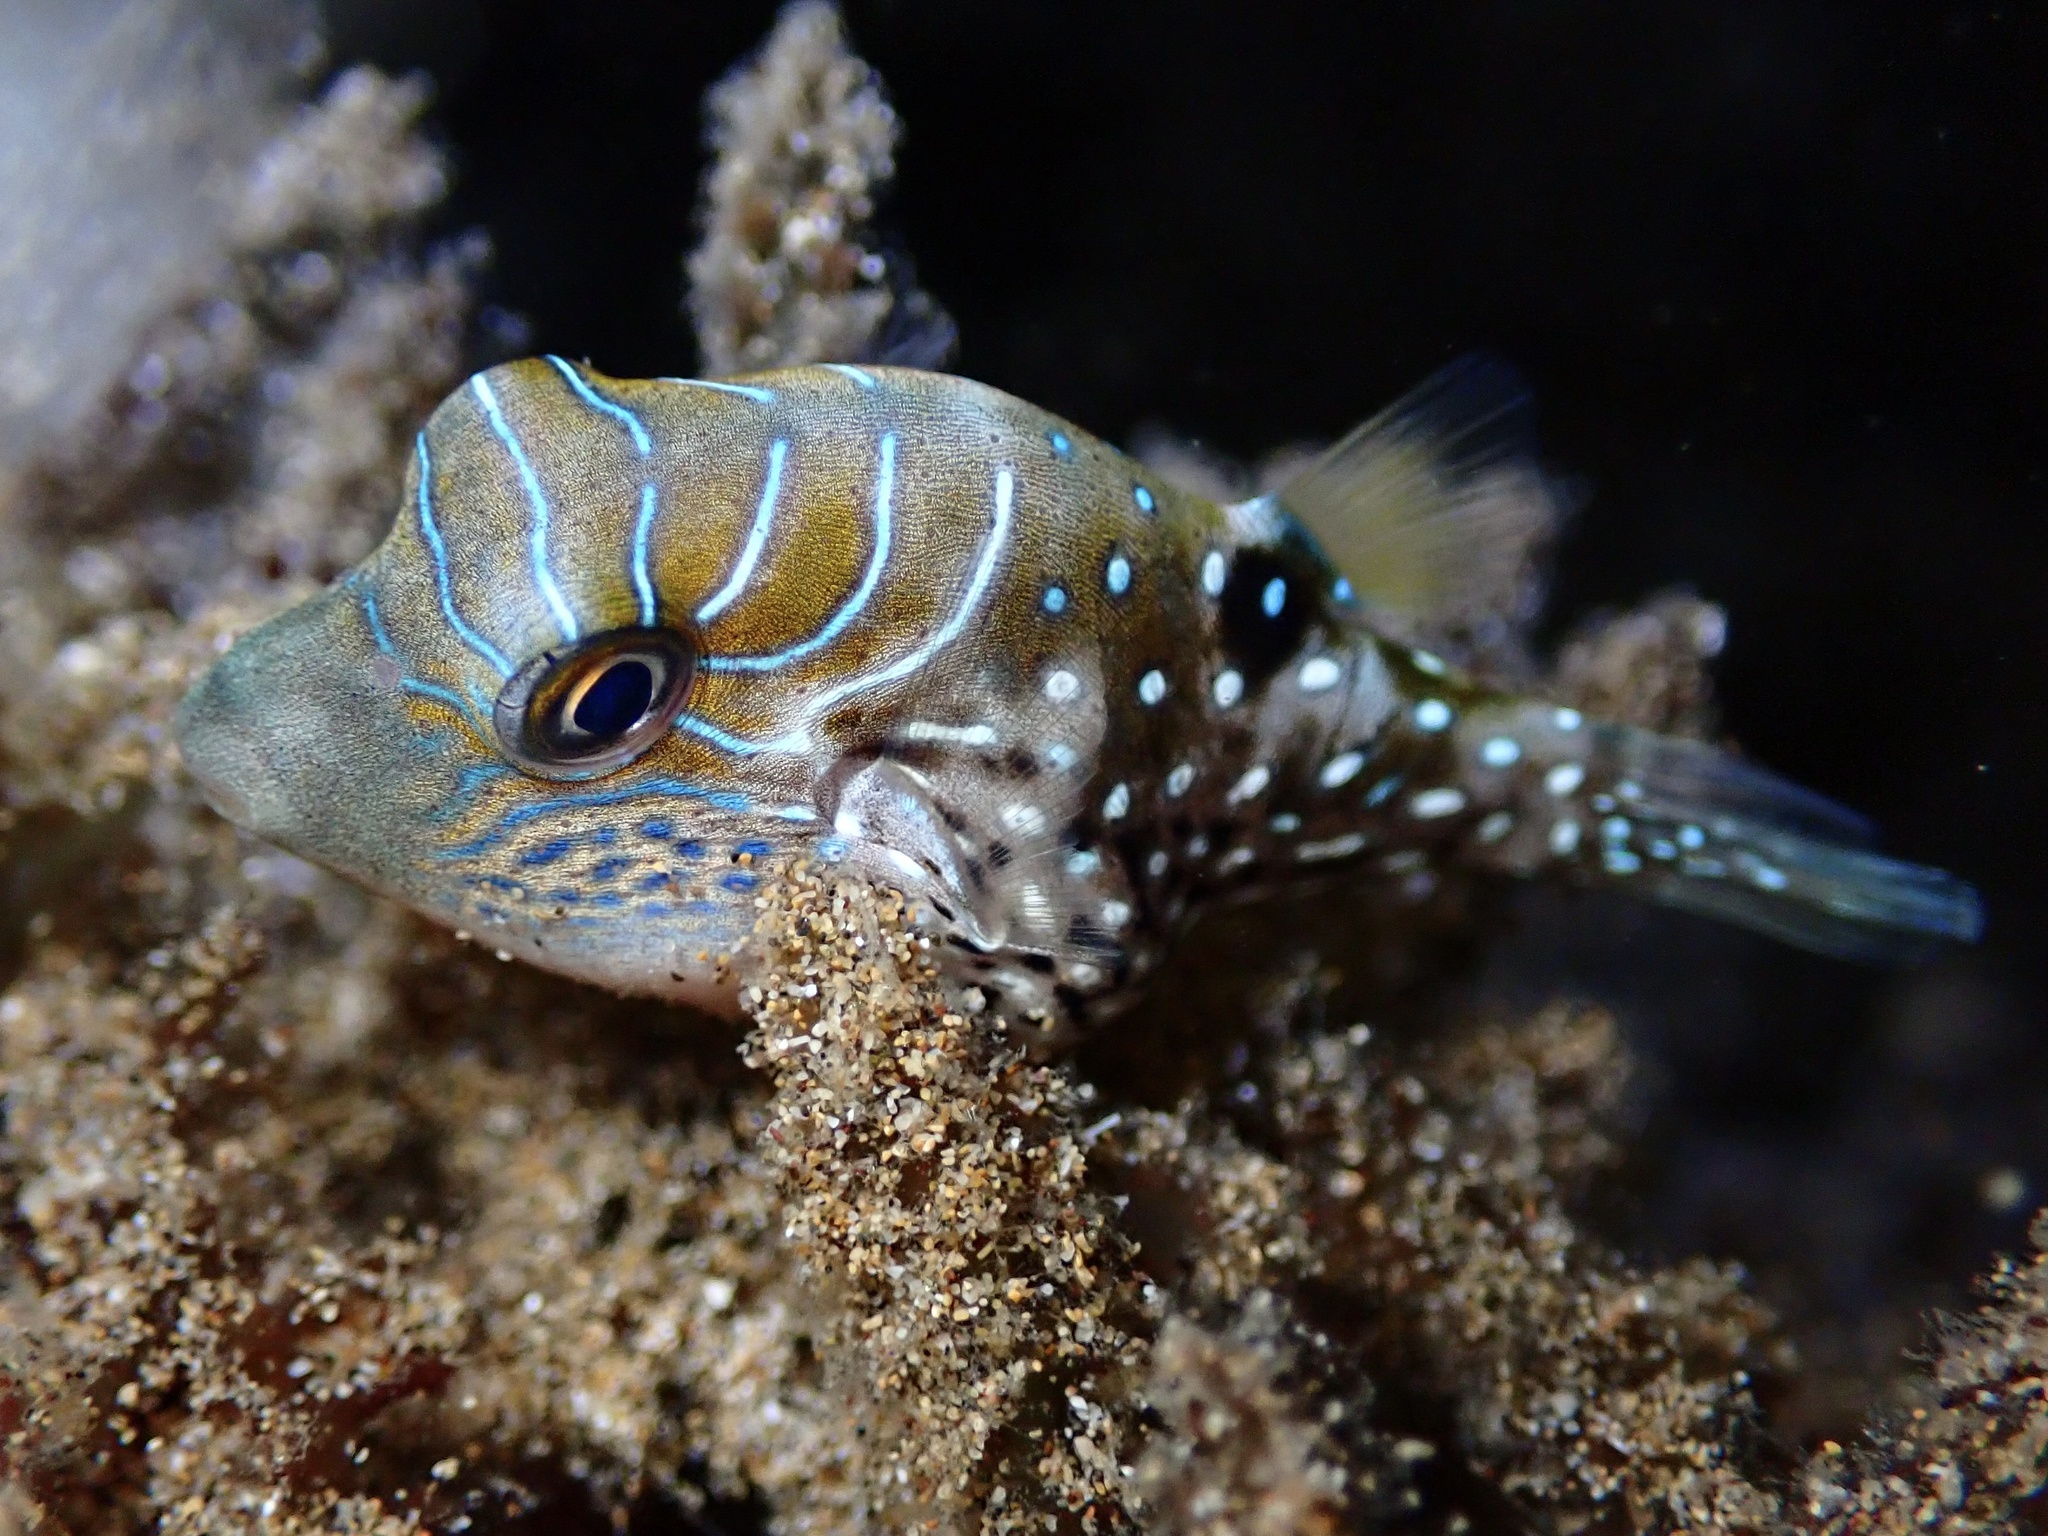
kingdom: Animalia
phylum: Chordata
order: Tetraodontiformes
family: Tetraodontidae
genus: Canthigaster
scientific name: Canthigaster amboinensis
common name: Ambon pufferfish
